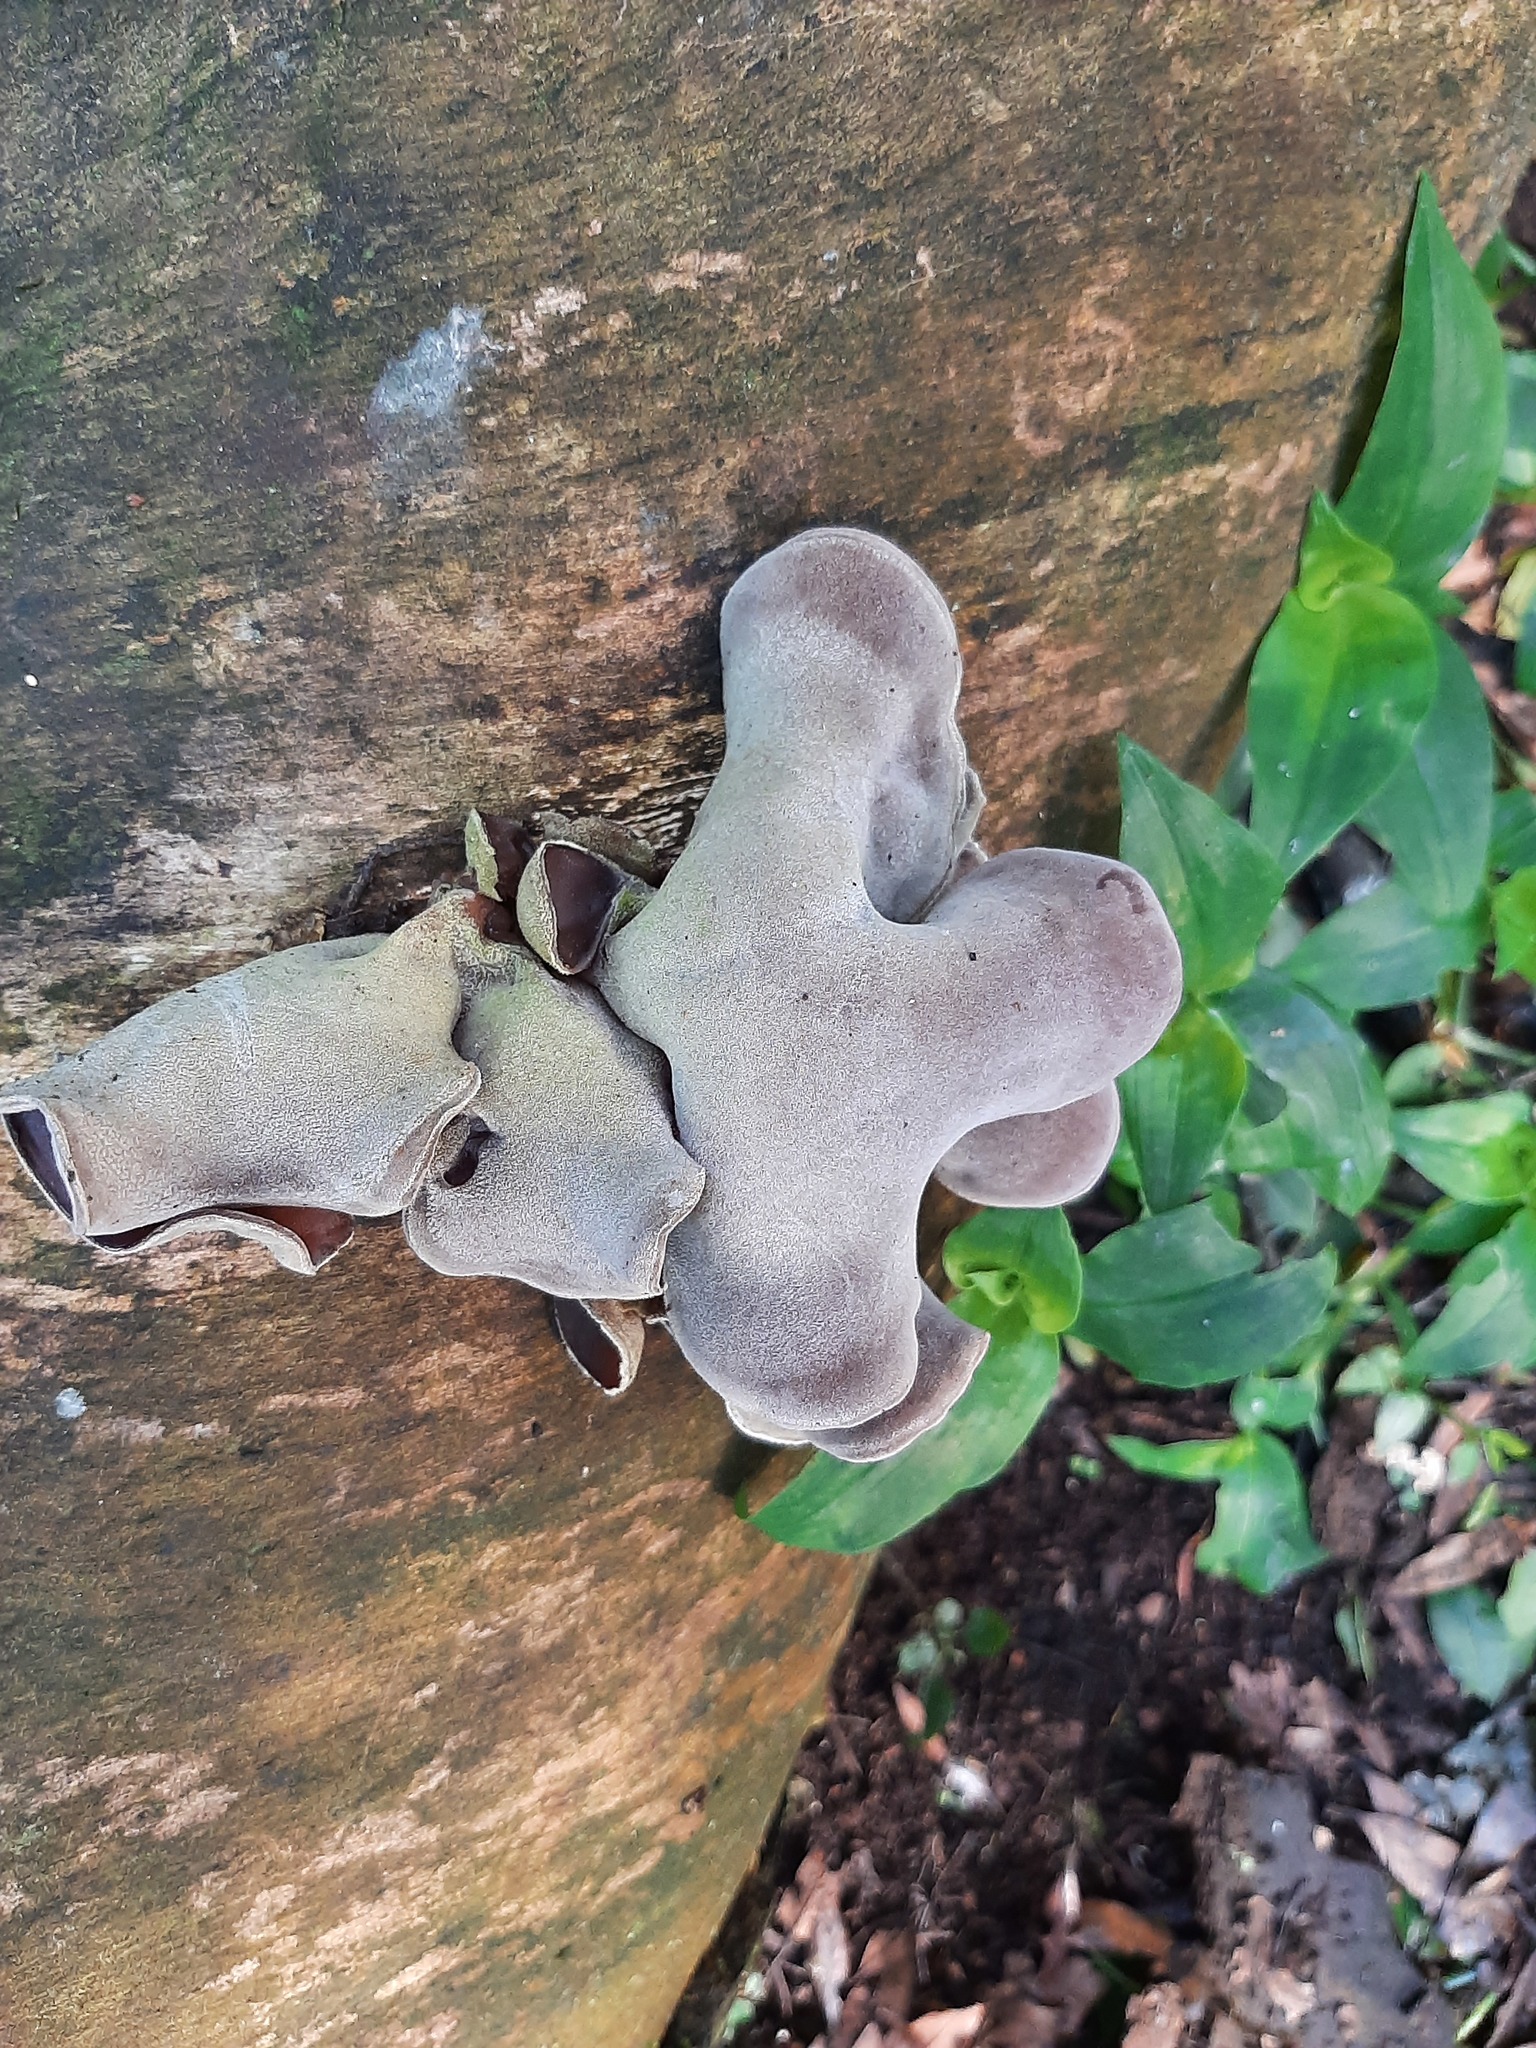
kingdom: Fungi
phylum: Basidiomycota
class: Agaricomycetes
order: Auriculariales
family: Auriculariaceae
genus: Auricularia
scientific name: Auricularia cornea
